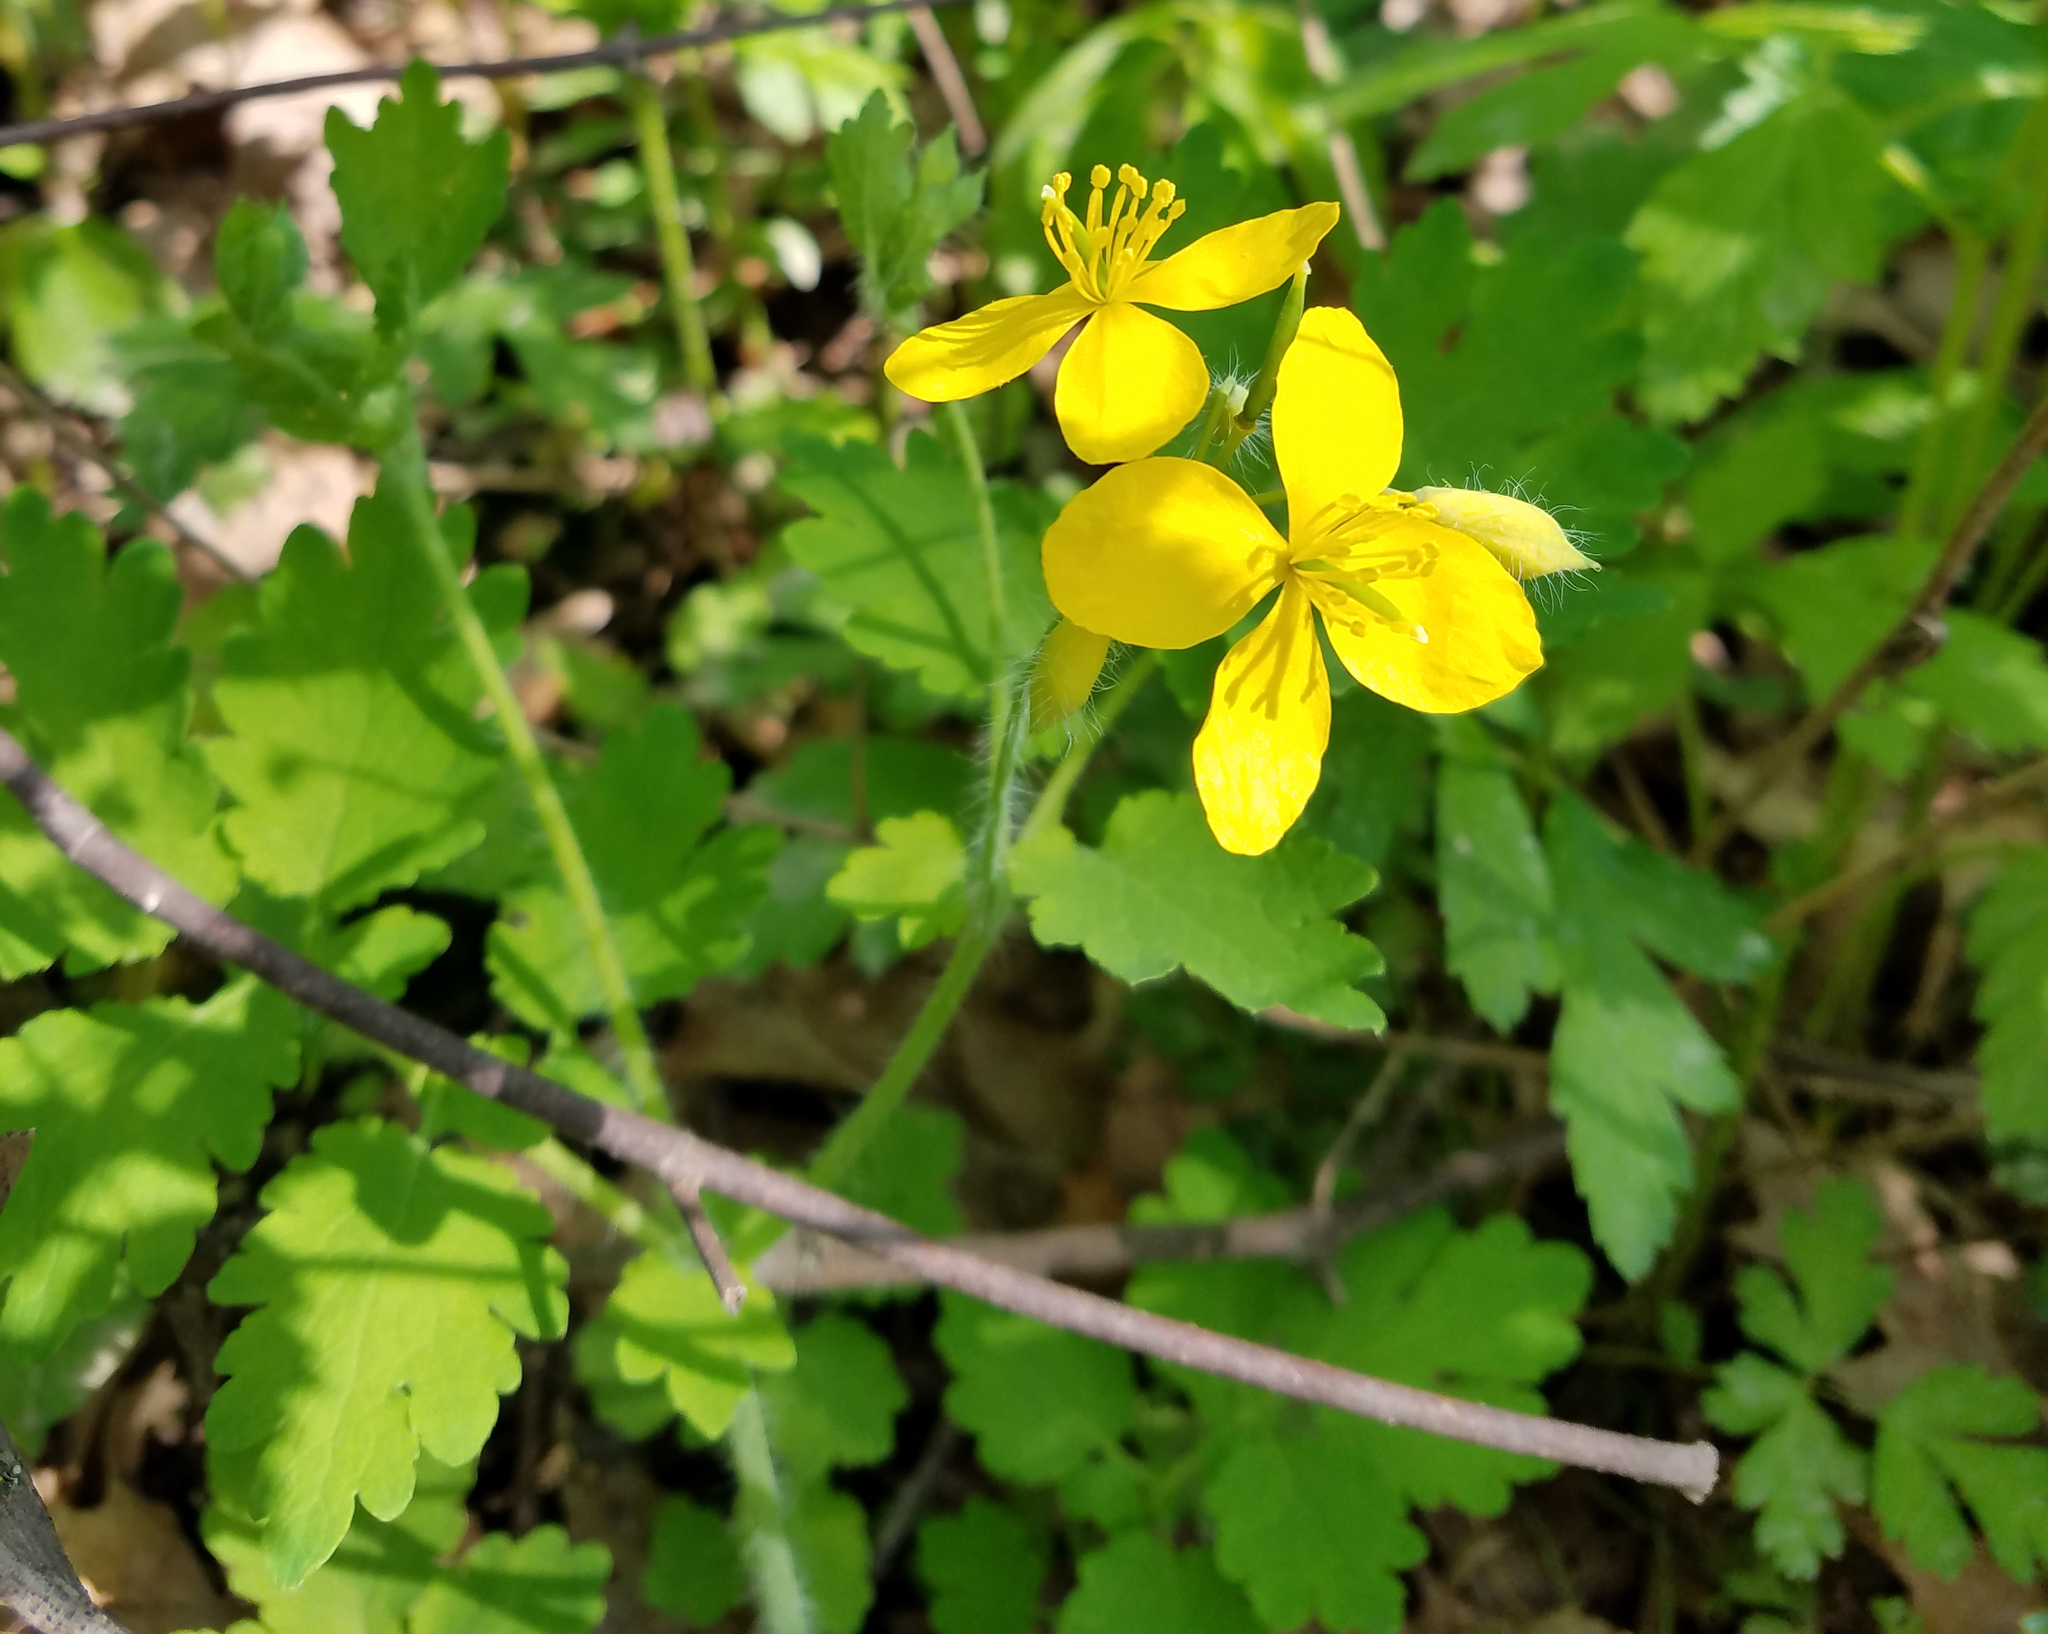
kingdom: Plantae
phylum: Tracheophyta
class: Magnoliopsida
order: Ranunculales
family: Papaveraceae
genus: Chelidonium
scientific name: Chelidonium majus
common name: Greater celandine
